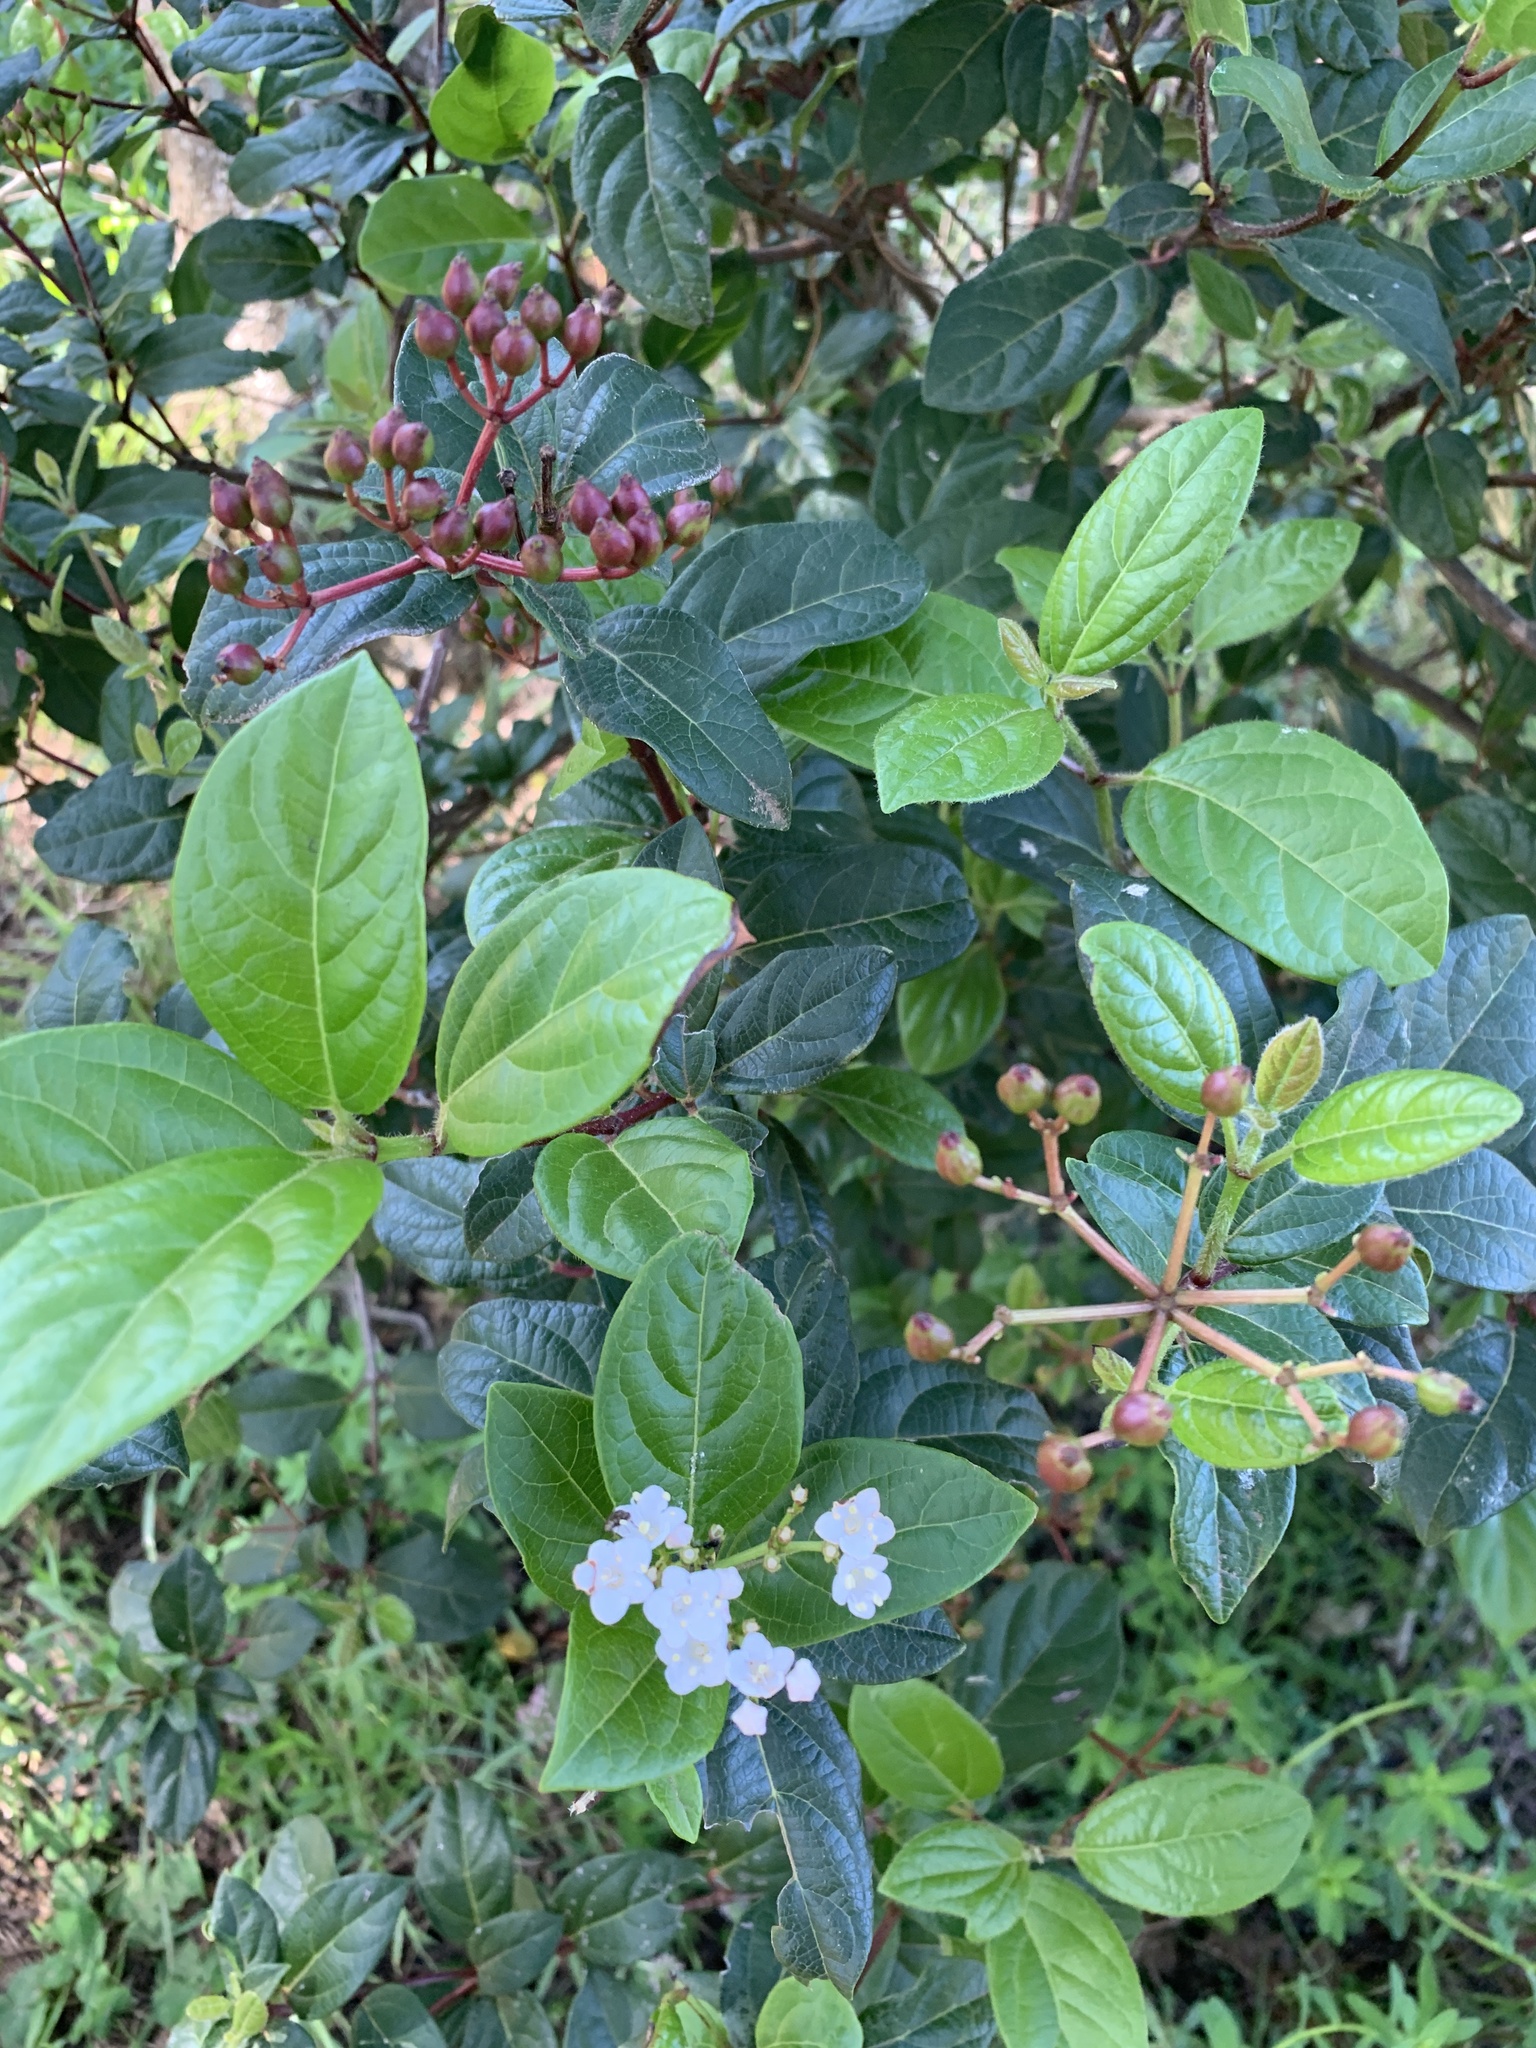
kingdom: Plantae
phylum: Tracheophyta
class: Magnoliopsida
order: Dipsacales
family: Viburnaceae
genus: Viburnum
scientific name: Viburnum tinus
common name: Laurustinus
